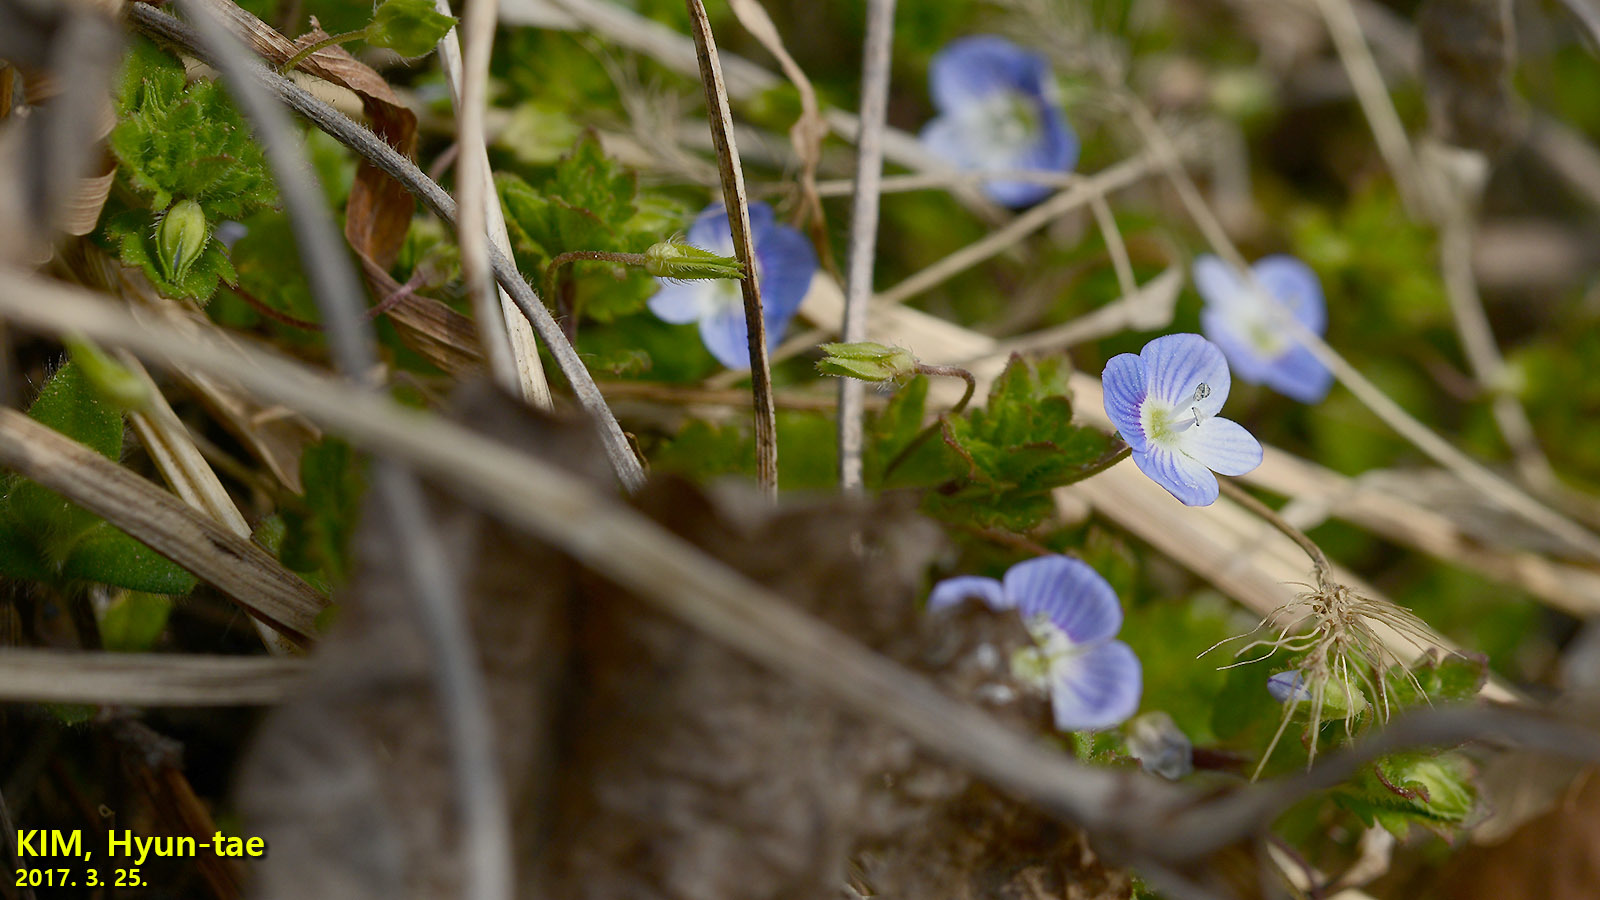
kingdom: Plantae
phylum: Tracheophyta
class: Magnoliopsida
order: Lamiales
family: Plantaginaceae
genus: Veronica
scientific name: Veronica persica
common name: Common field-speedwell
